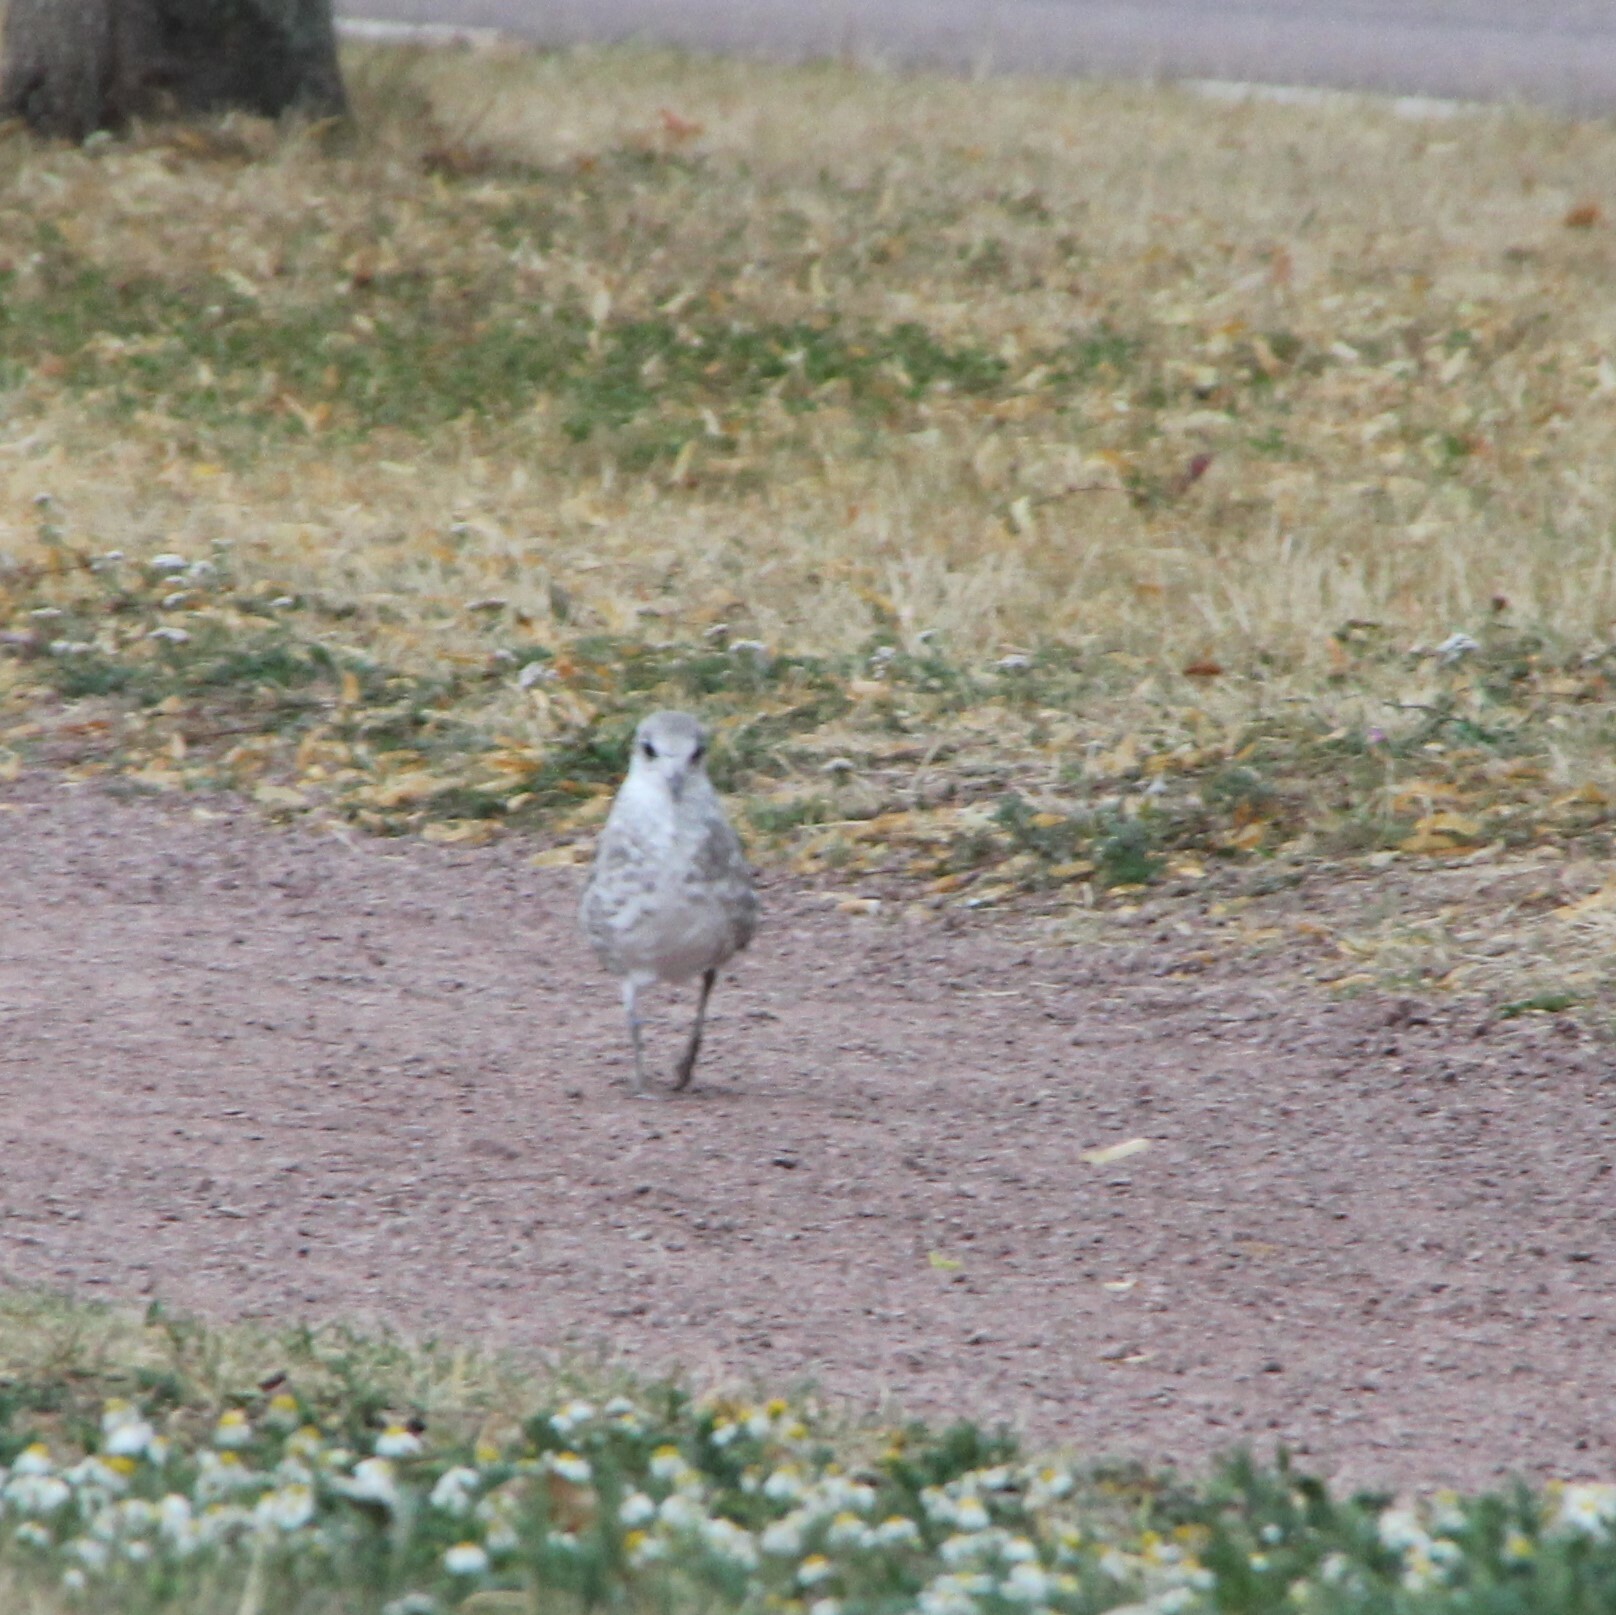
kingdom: Animalia
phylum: Chordata
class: Aves
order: Charadriiformes
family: Laridae
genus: Larus
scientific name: Larus canus
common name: Mew gull
